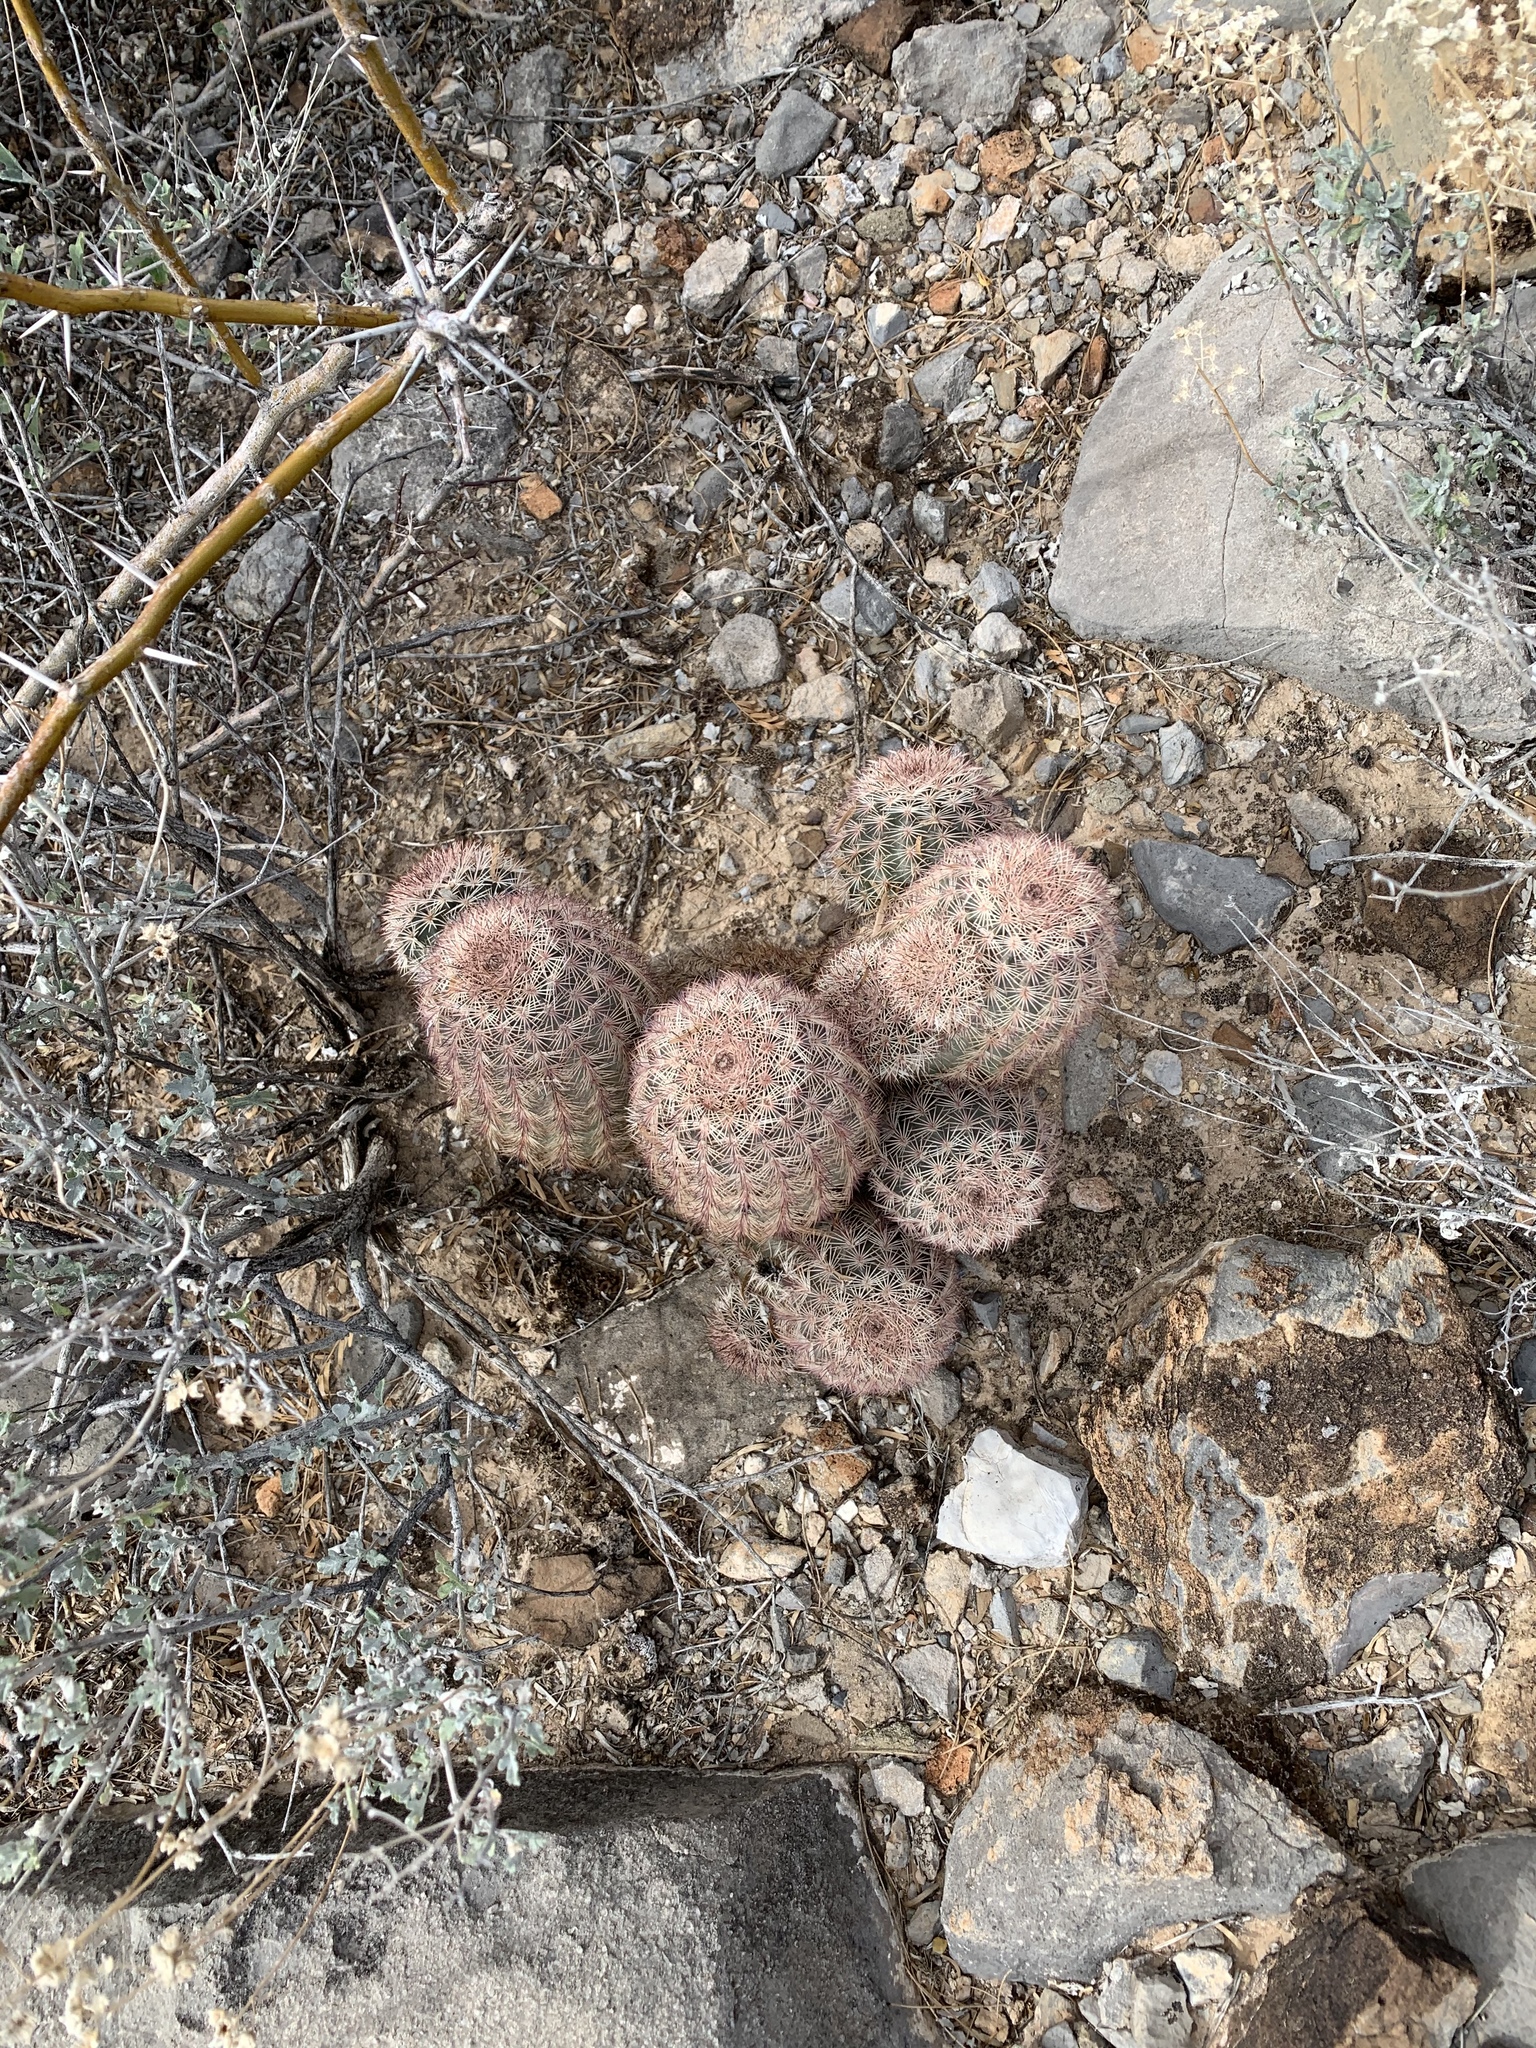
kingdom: Plantae
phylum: Tracheophyta
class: Magnoliopsida
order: Caryophyllales
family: Cactaceae
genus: Echinocereus
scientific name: Echinocereus dasyacanthus
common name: Spiny hedgehog cactus
